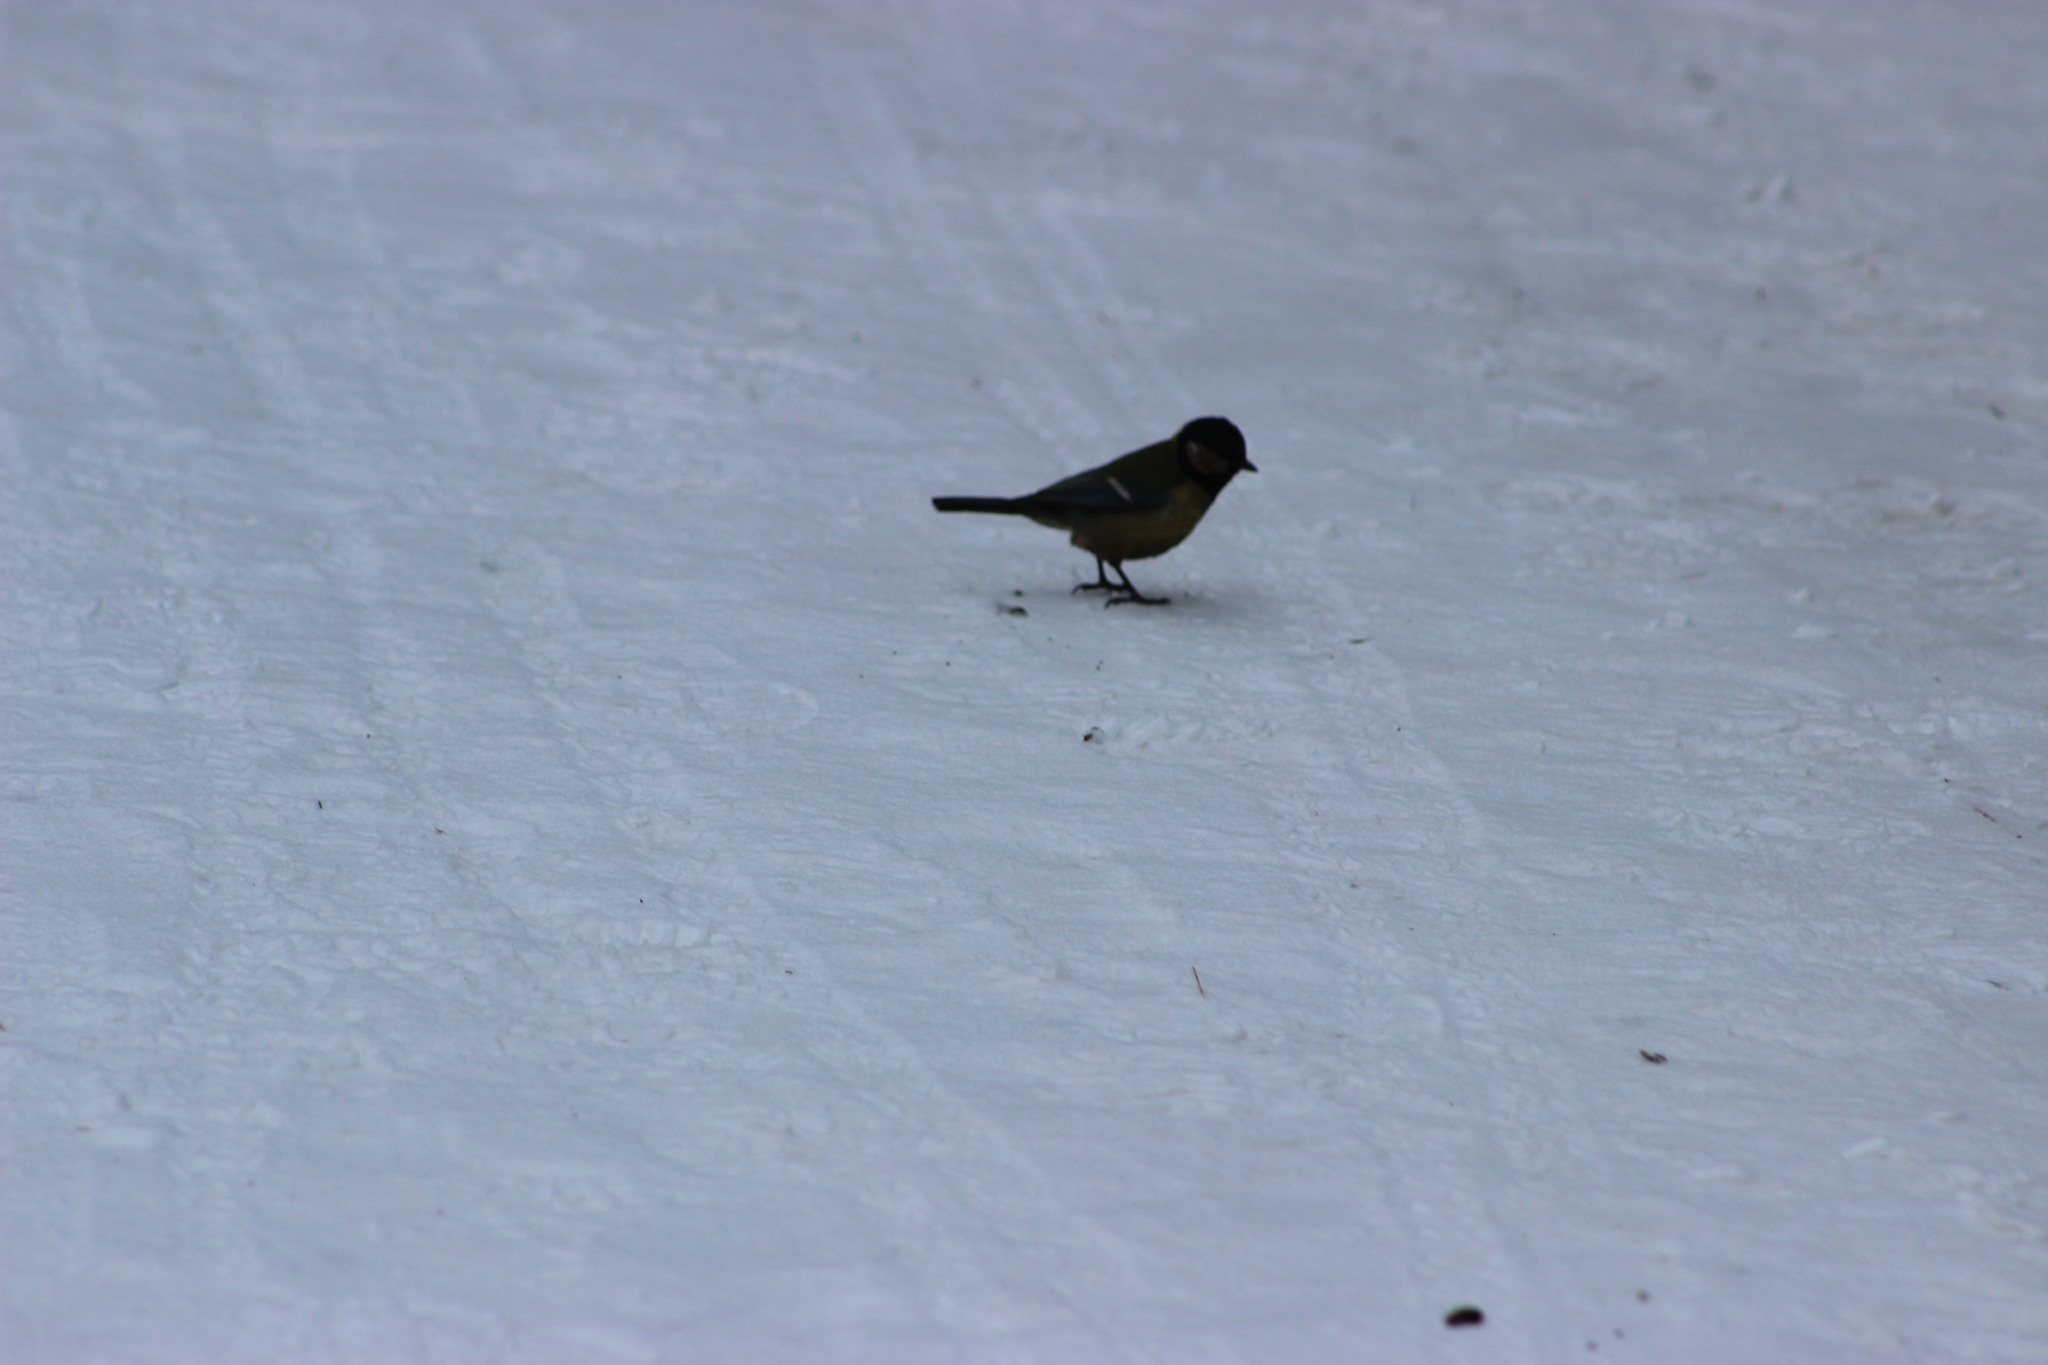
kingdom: Animalia
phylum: Chordata
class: Aves
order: Passeriformes
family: Paridae
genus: Parus
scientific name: Parus major
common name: Great tit
